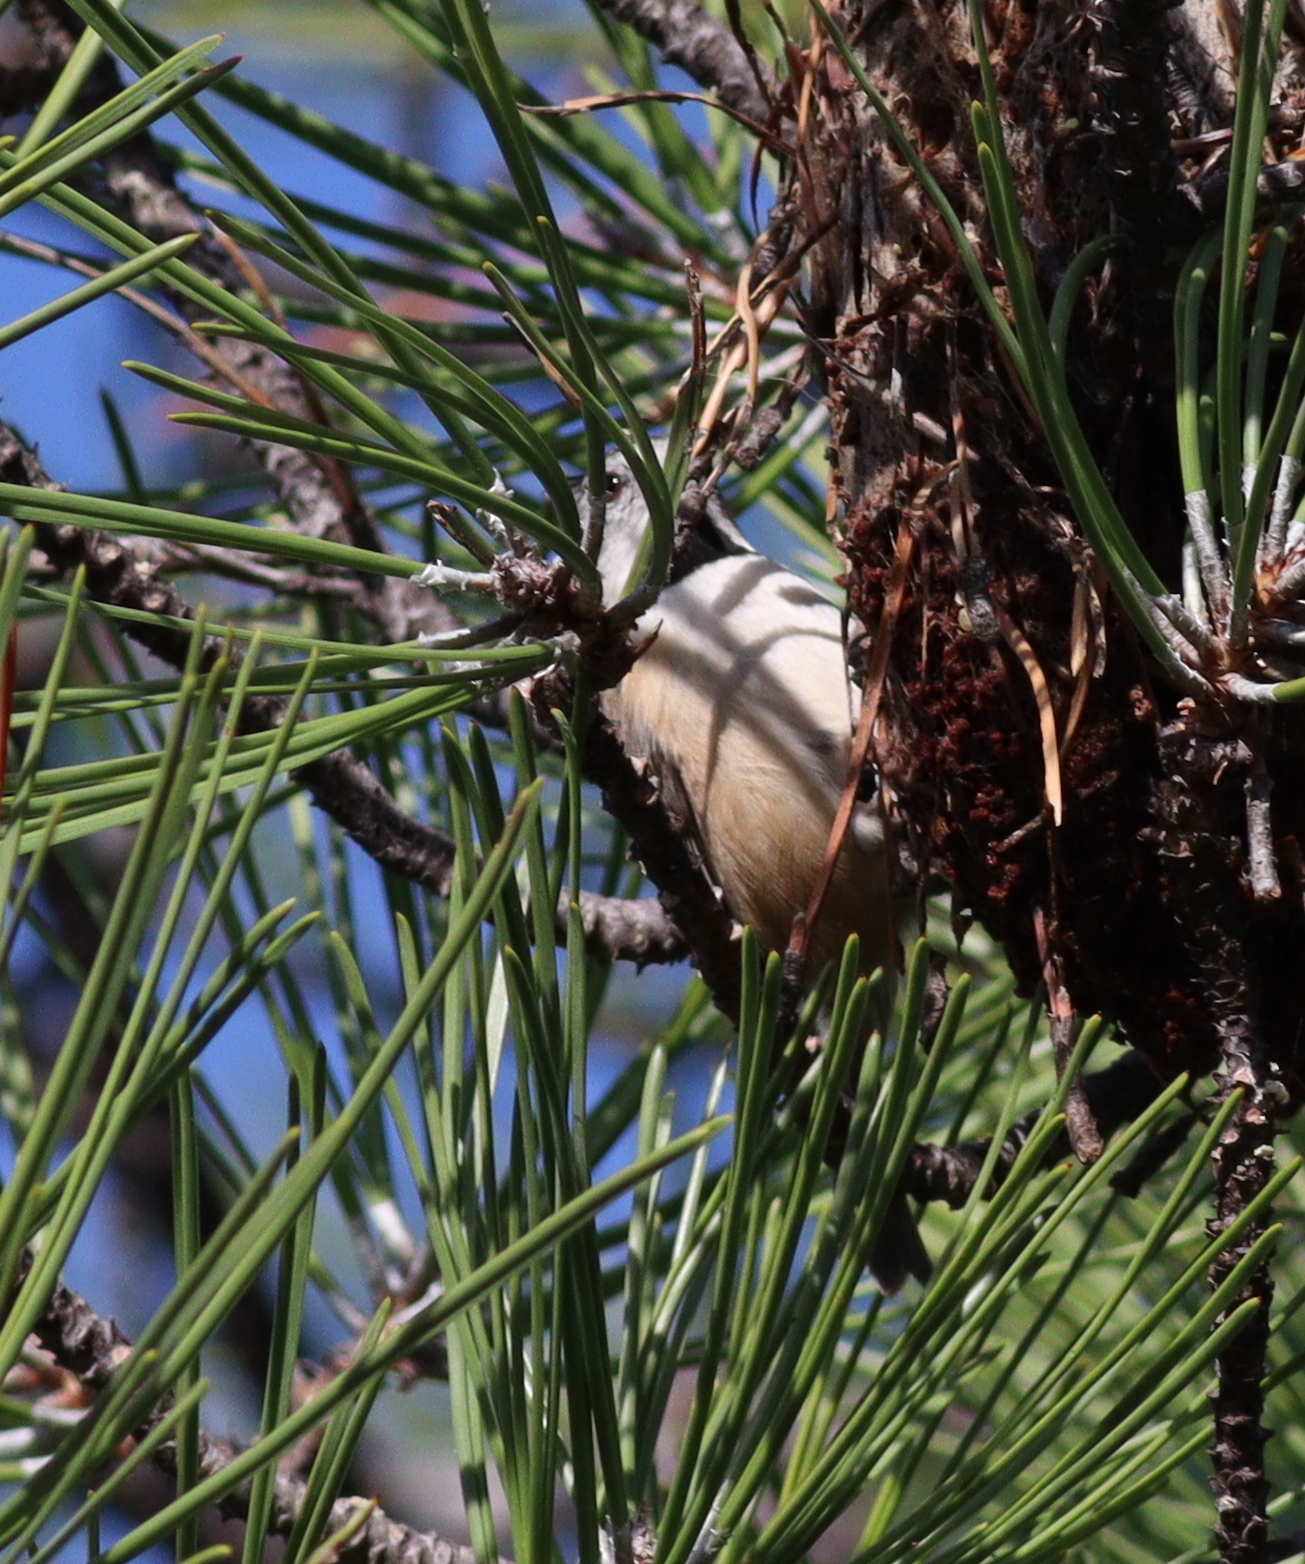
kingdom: Animalia
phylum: Chordata
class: Aves
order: Passeriformes
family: Paridae
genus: Lophophanes
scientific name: Lophophanes cristatus
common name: European crested tit
